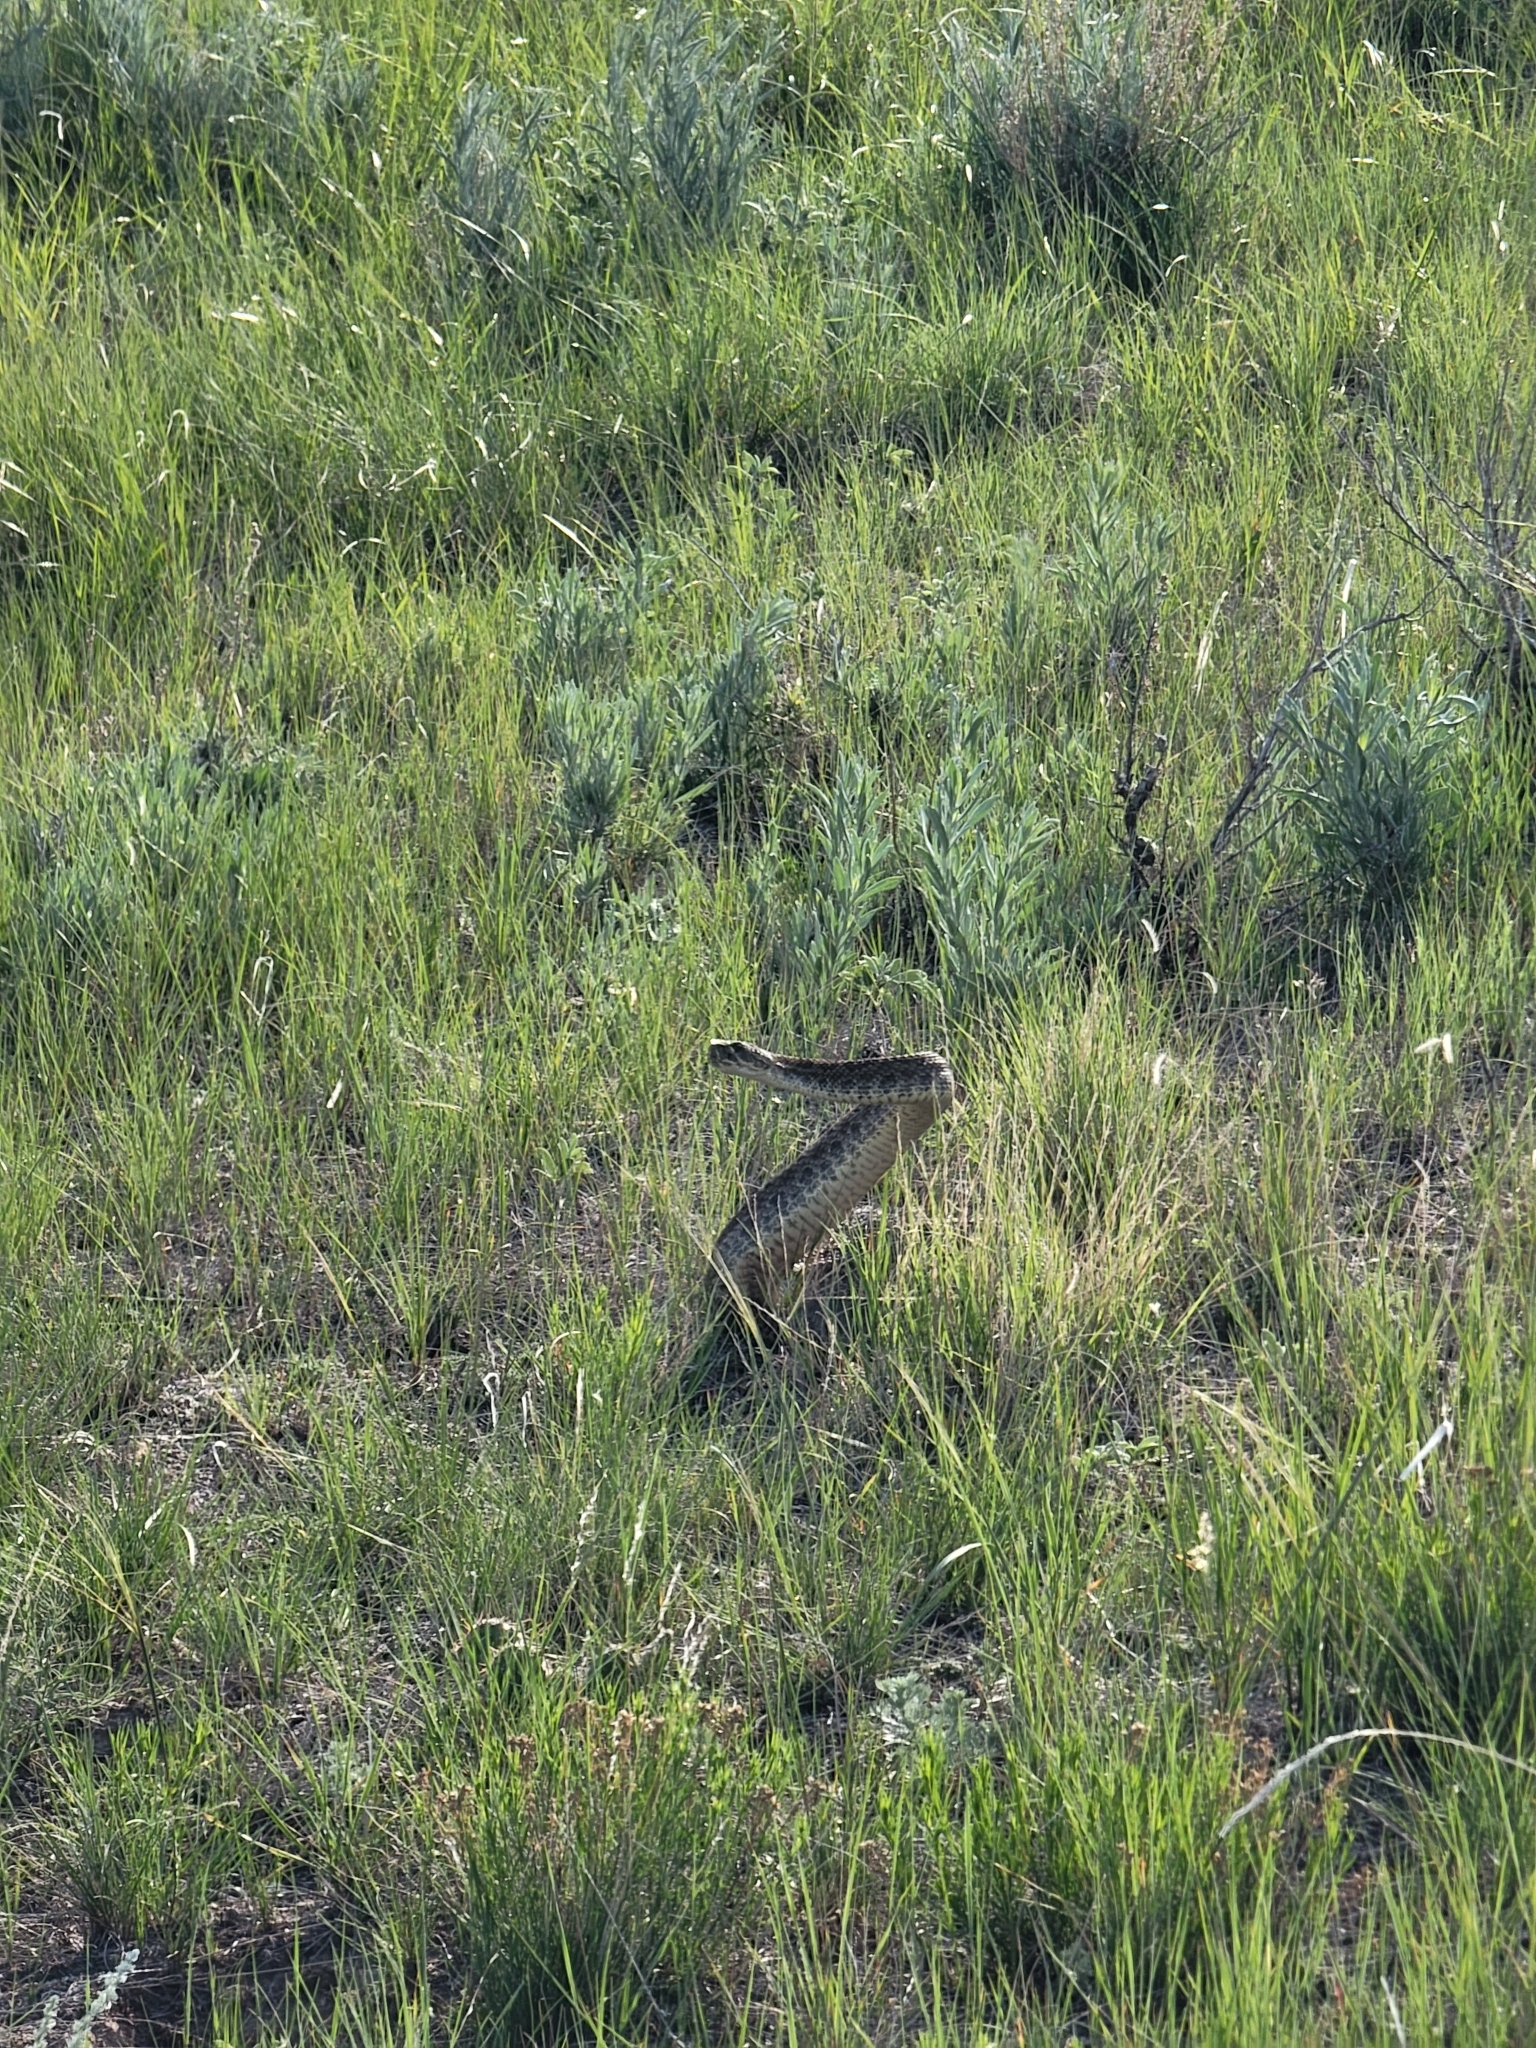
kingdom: Animalia
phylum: Chordata
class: Squamata
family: Viperidae
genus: Crotalus
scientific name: Crotalus viridis
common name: Prairie rattlesnake
